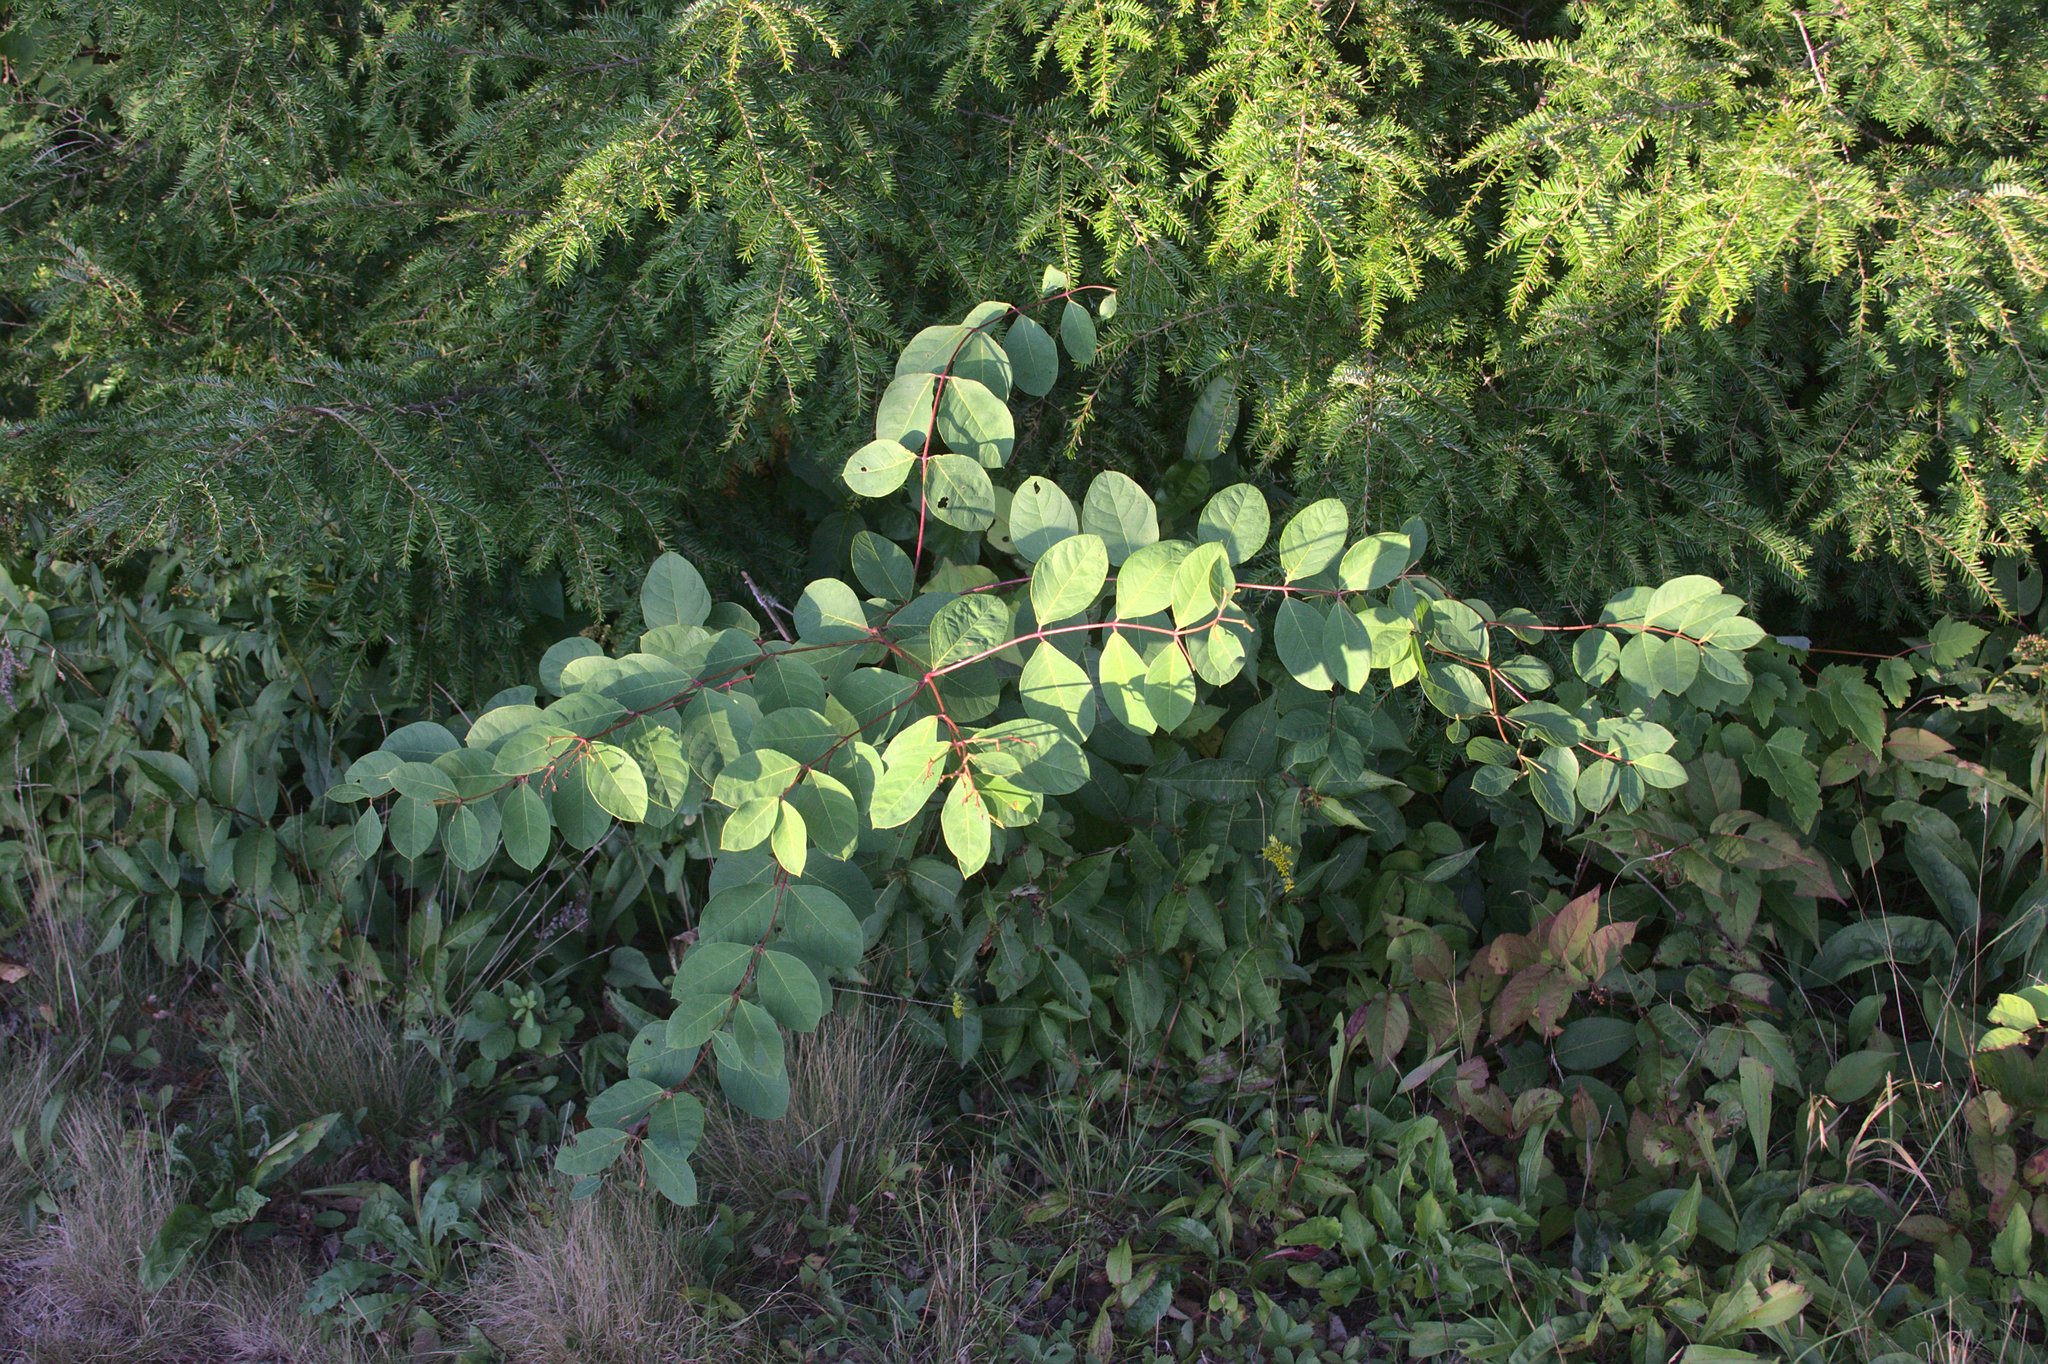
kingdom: Plantae
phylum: Tracheophyta
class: Magnoliopsida
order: Gentianales
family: Apocynaceae
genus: Apocynum
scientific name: Apocynum androsaemifolium
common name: Spreading dogbane
